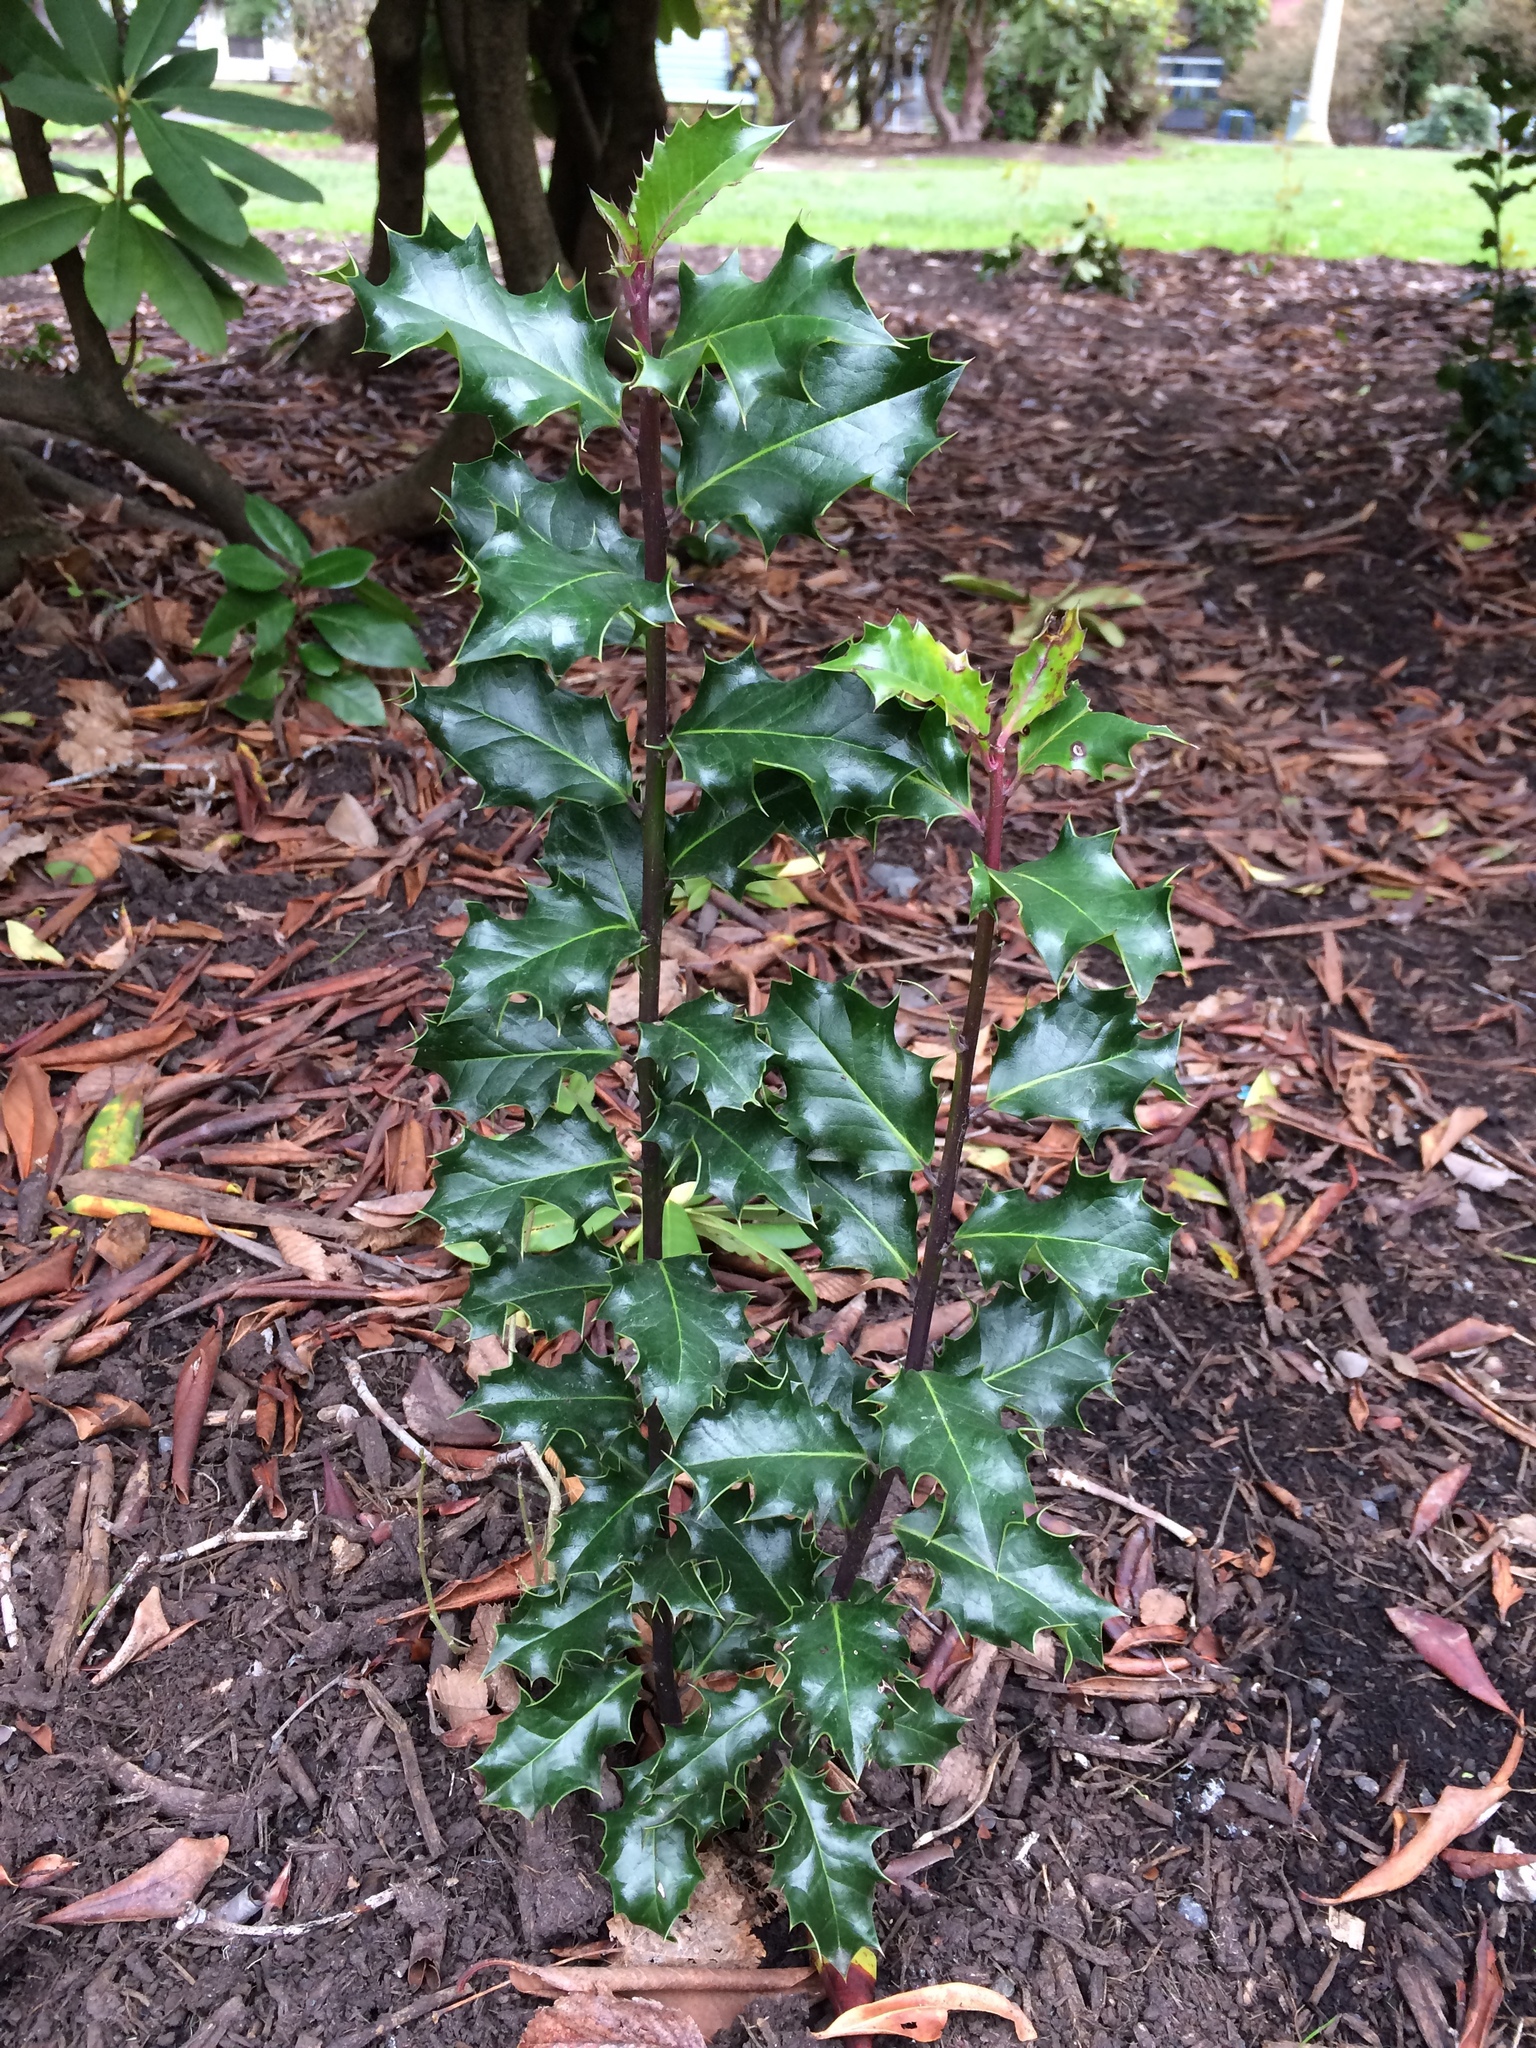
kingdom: Plantae
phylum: Tracheophyta
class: Magnoliopsida
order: Aquifoliales
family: Aquifoliaceae
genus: Ilex
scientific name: Ilex aquifolium
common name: English holly
